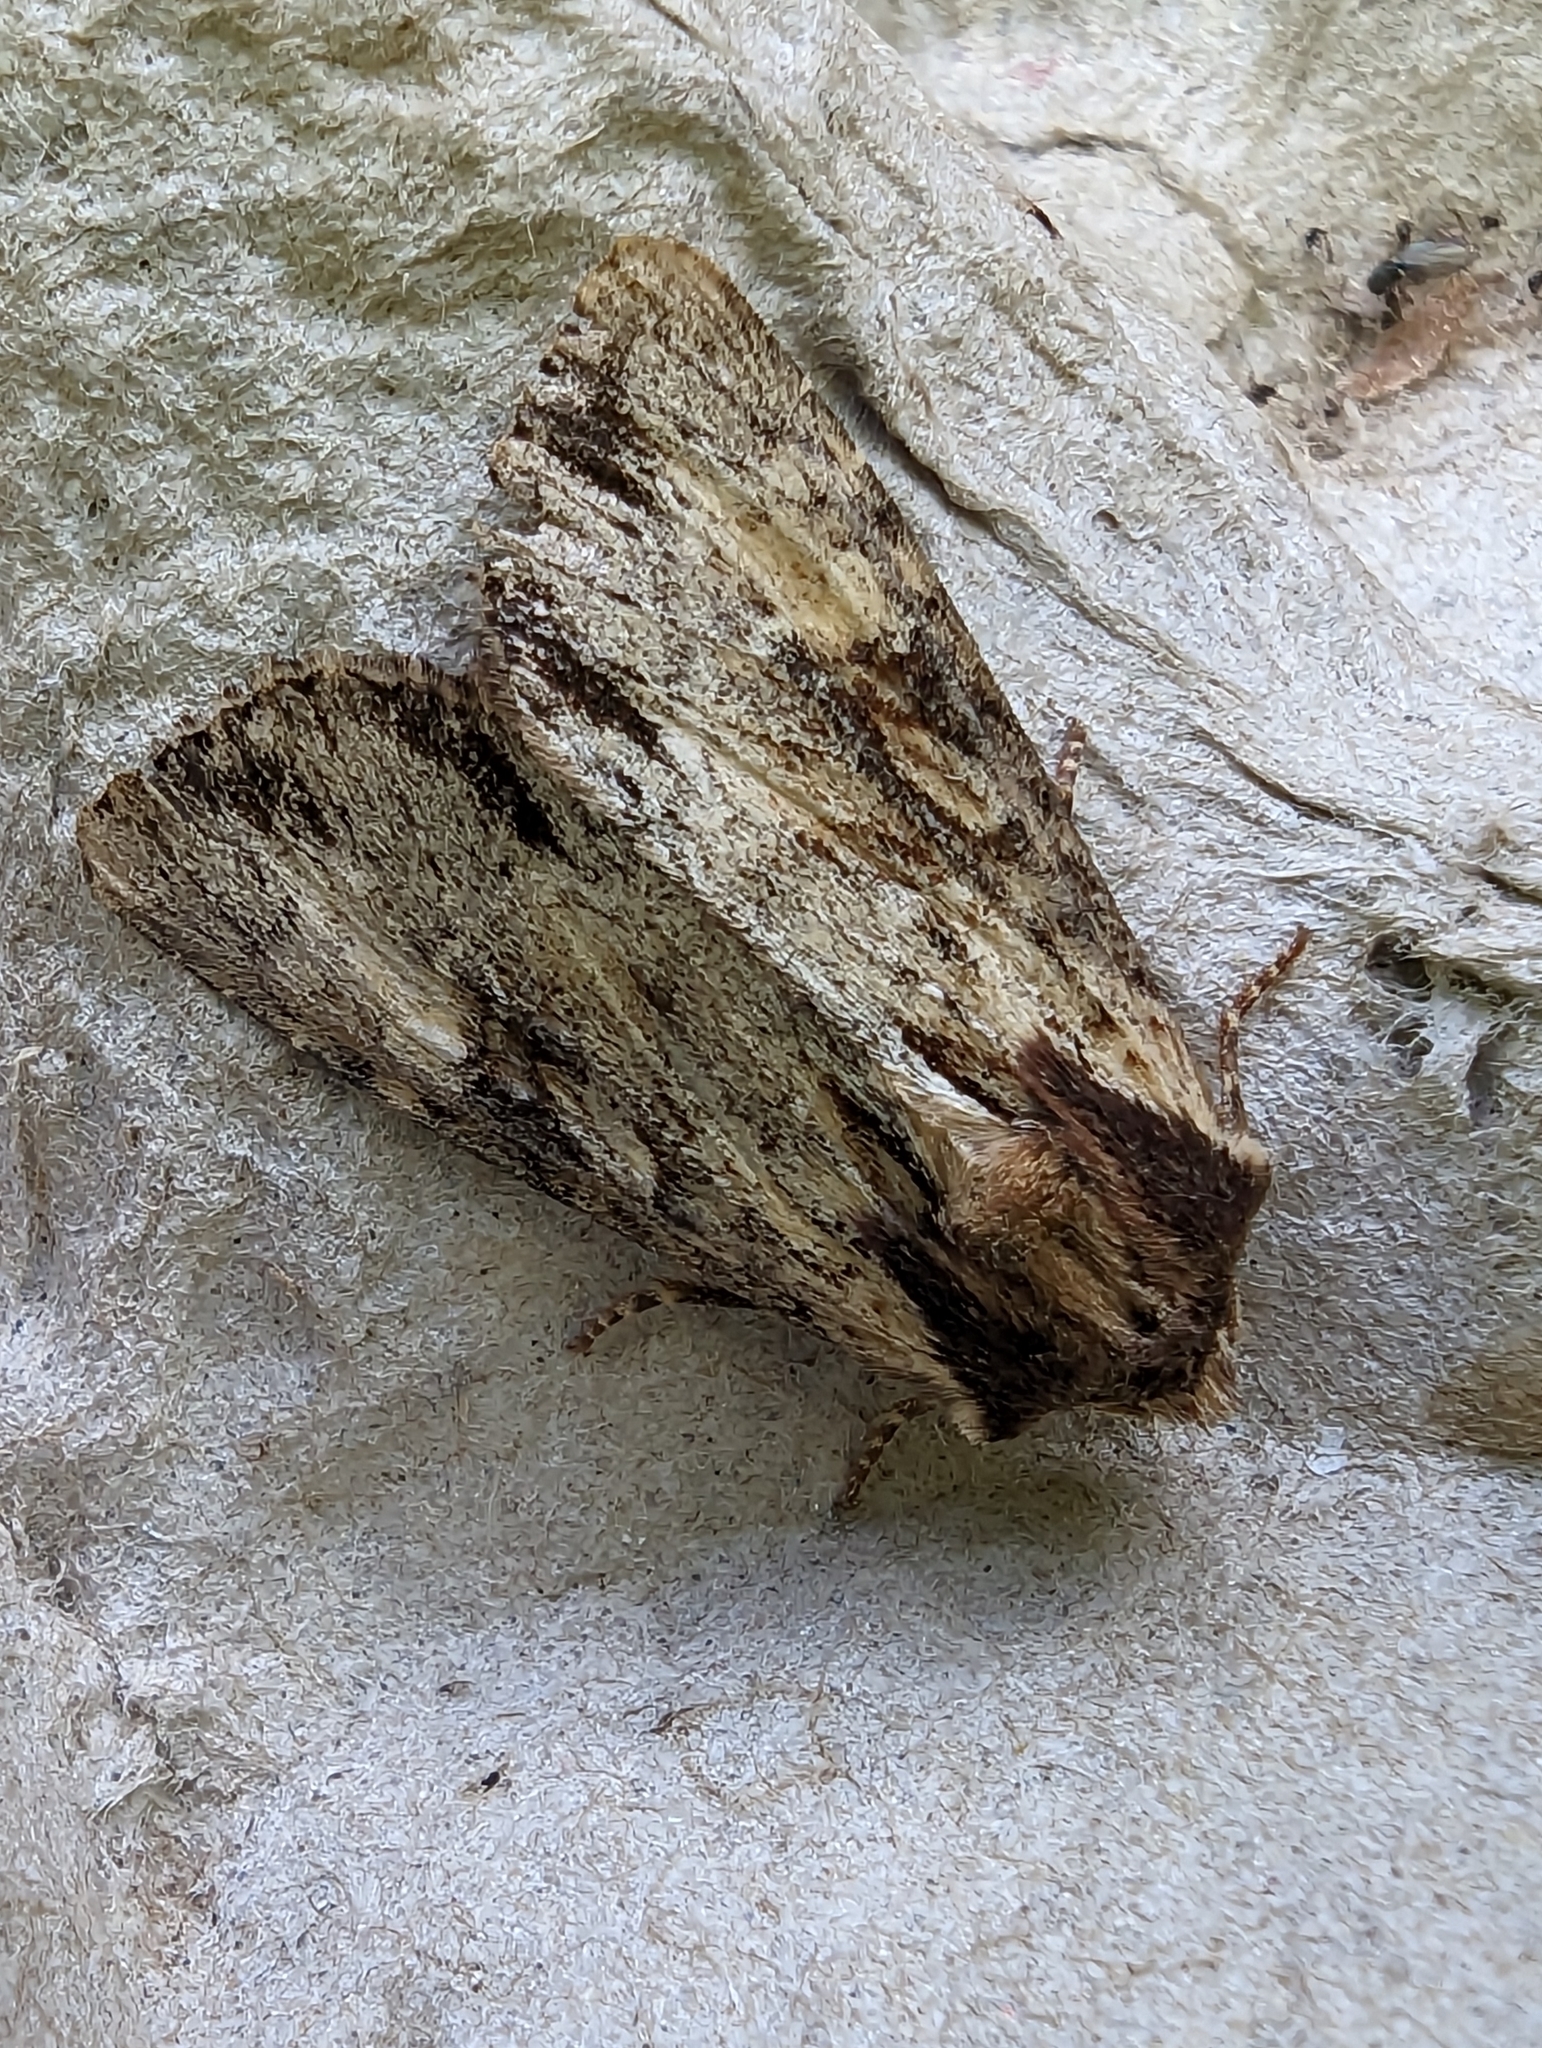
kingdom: Animalia
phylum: Arthropoda
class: Insecta
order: Lepidoptera
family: Noctuidae
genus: Apamea
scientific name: Apamea crenata
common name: Clouded-bordered brindle
